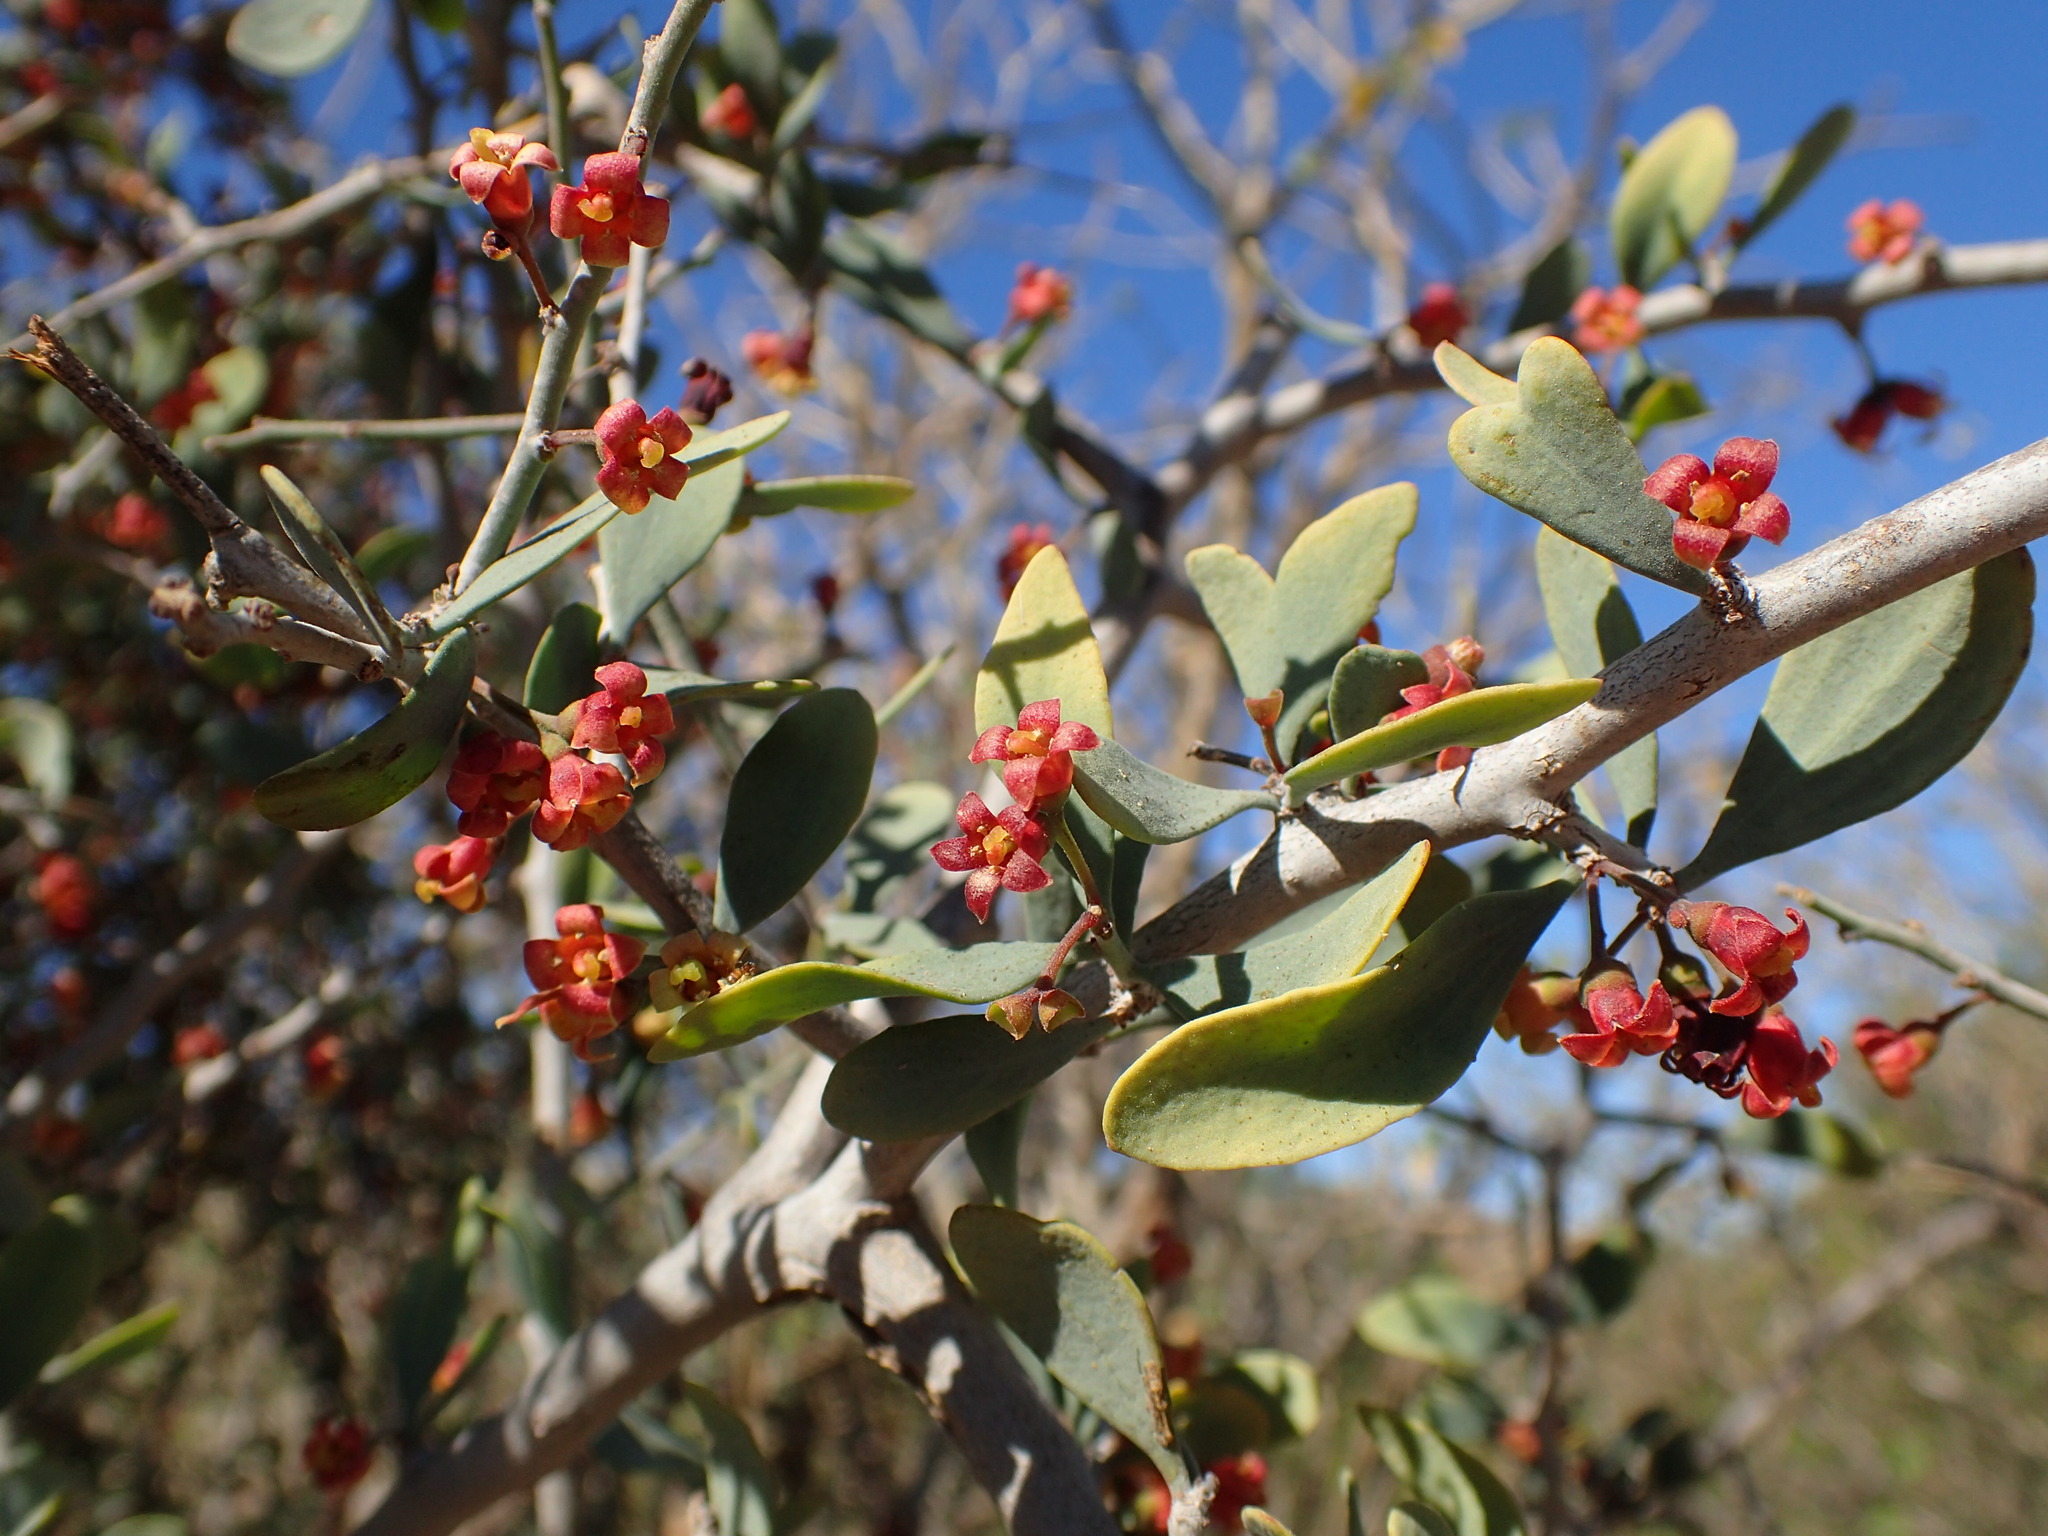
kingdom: Plantae
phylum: Tracheophyta
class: Magnoliopsida
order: Santalales
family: Schoepfiaceae
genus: Schoepfia
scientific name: Schoepfia californica
